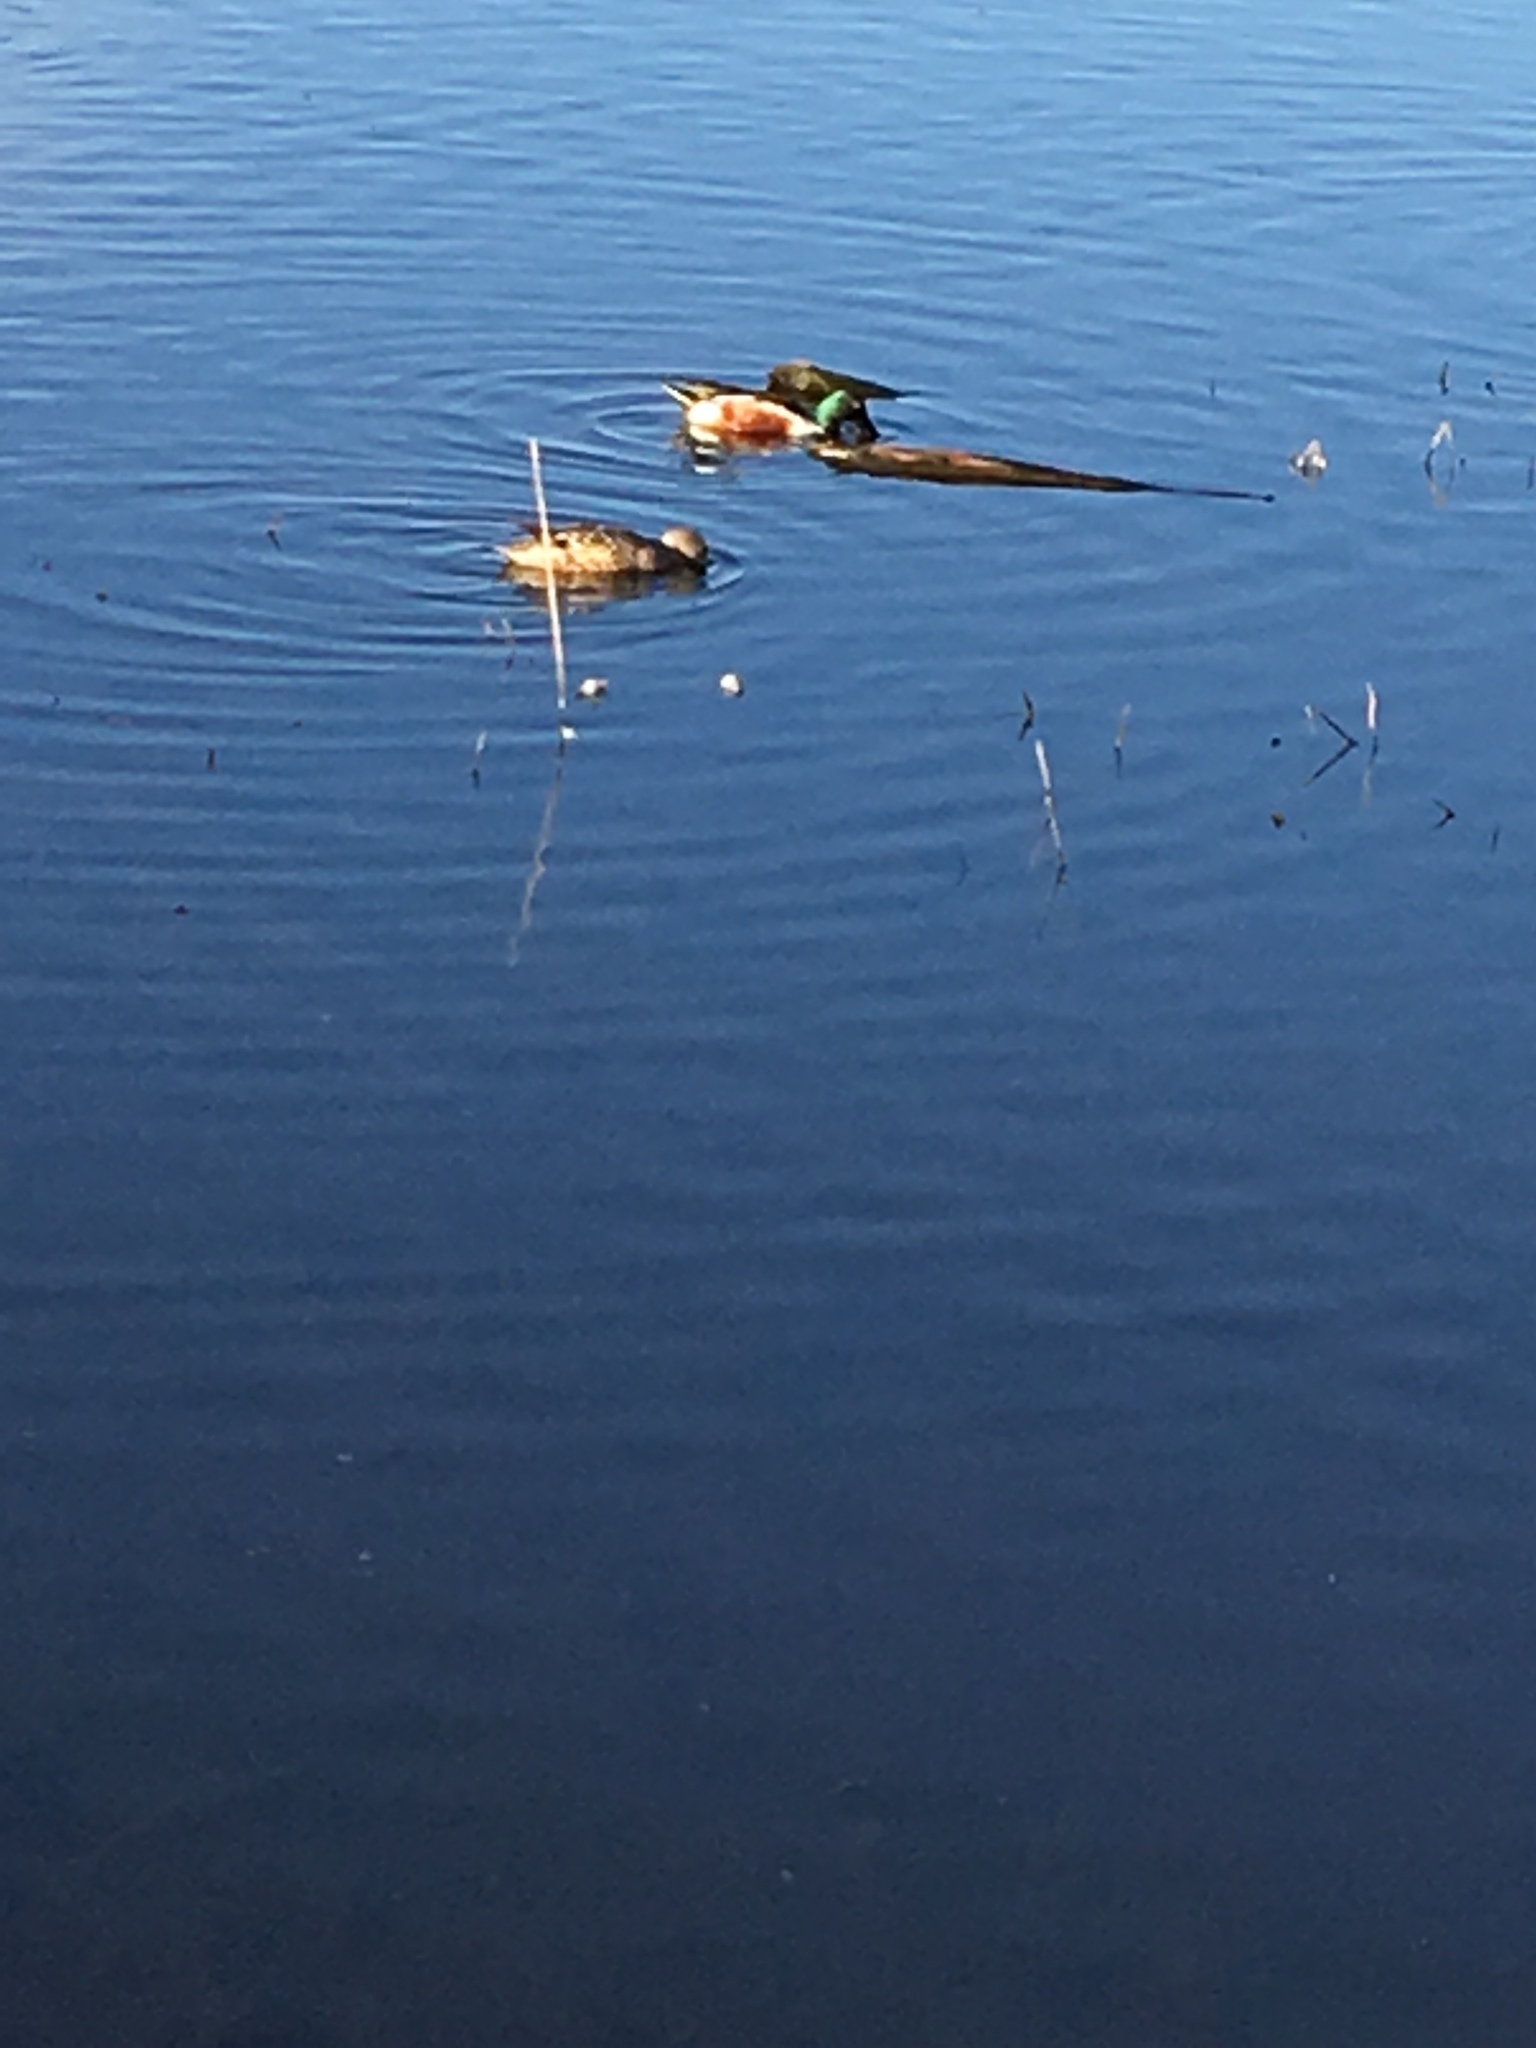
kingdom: Animalia
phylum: Chordata
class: Aves
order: Anseriformes
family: Anatidae
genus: Spatula
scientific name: Spatula clypeata
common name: Northern shoveler
